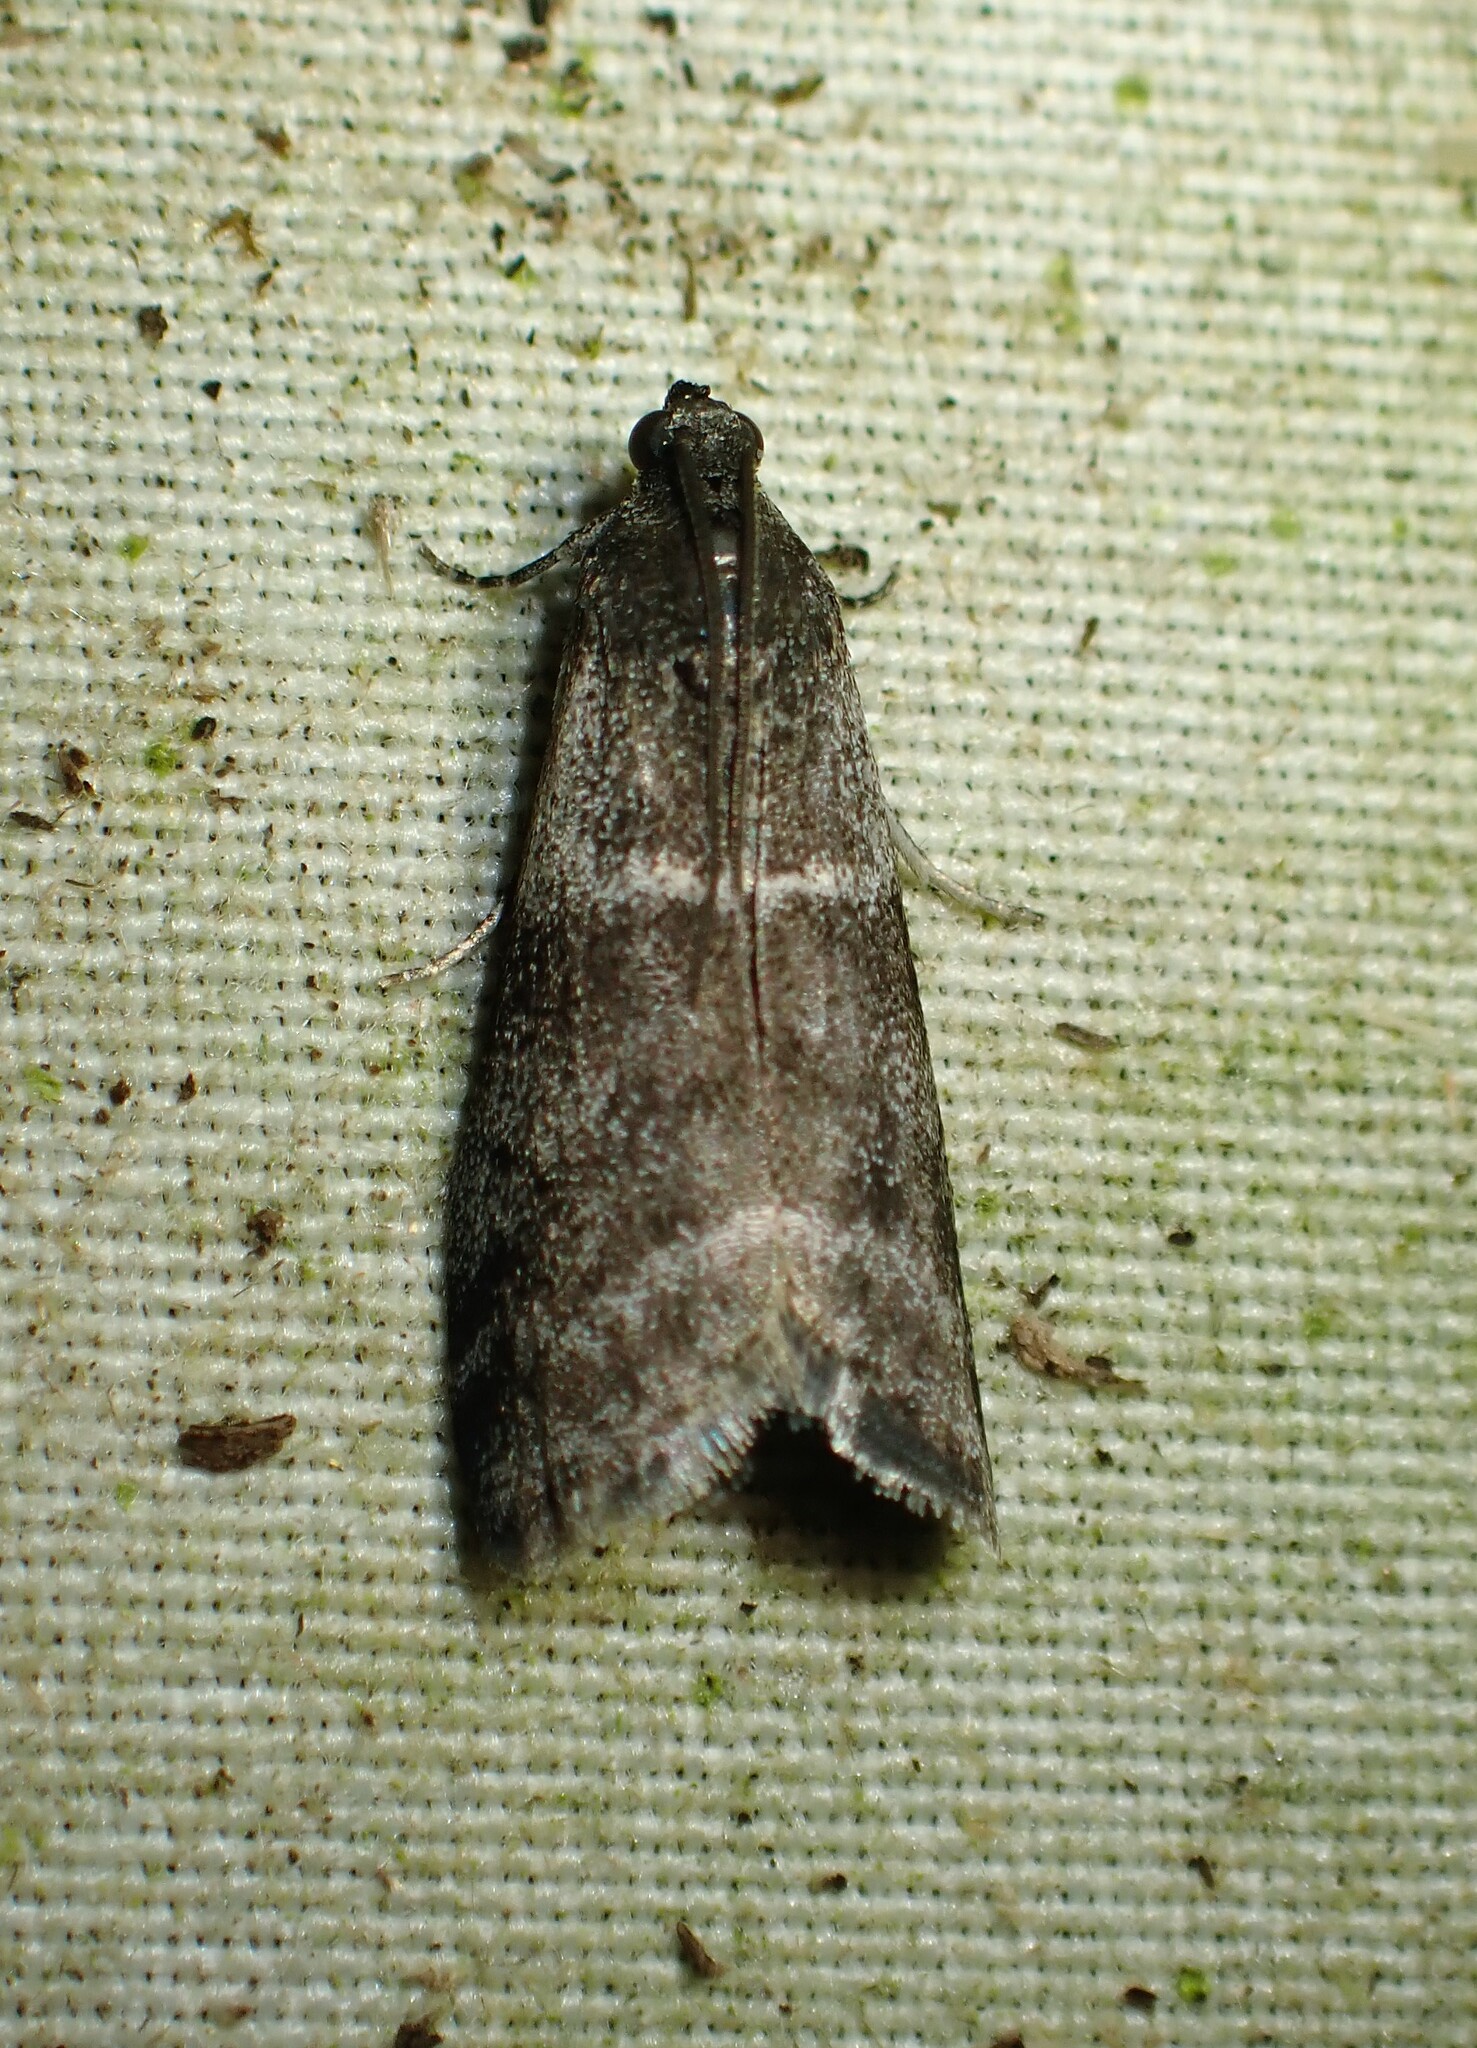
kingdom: Animalia
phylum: Arthropoda
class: Insecta
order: Lepidoptera
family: Pyralidae
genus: Apomyelois
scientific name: Apomyelois bistriatella
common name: Heath knot-horn
